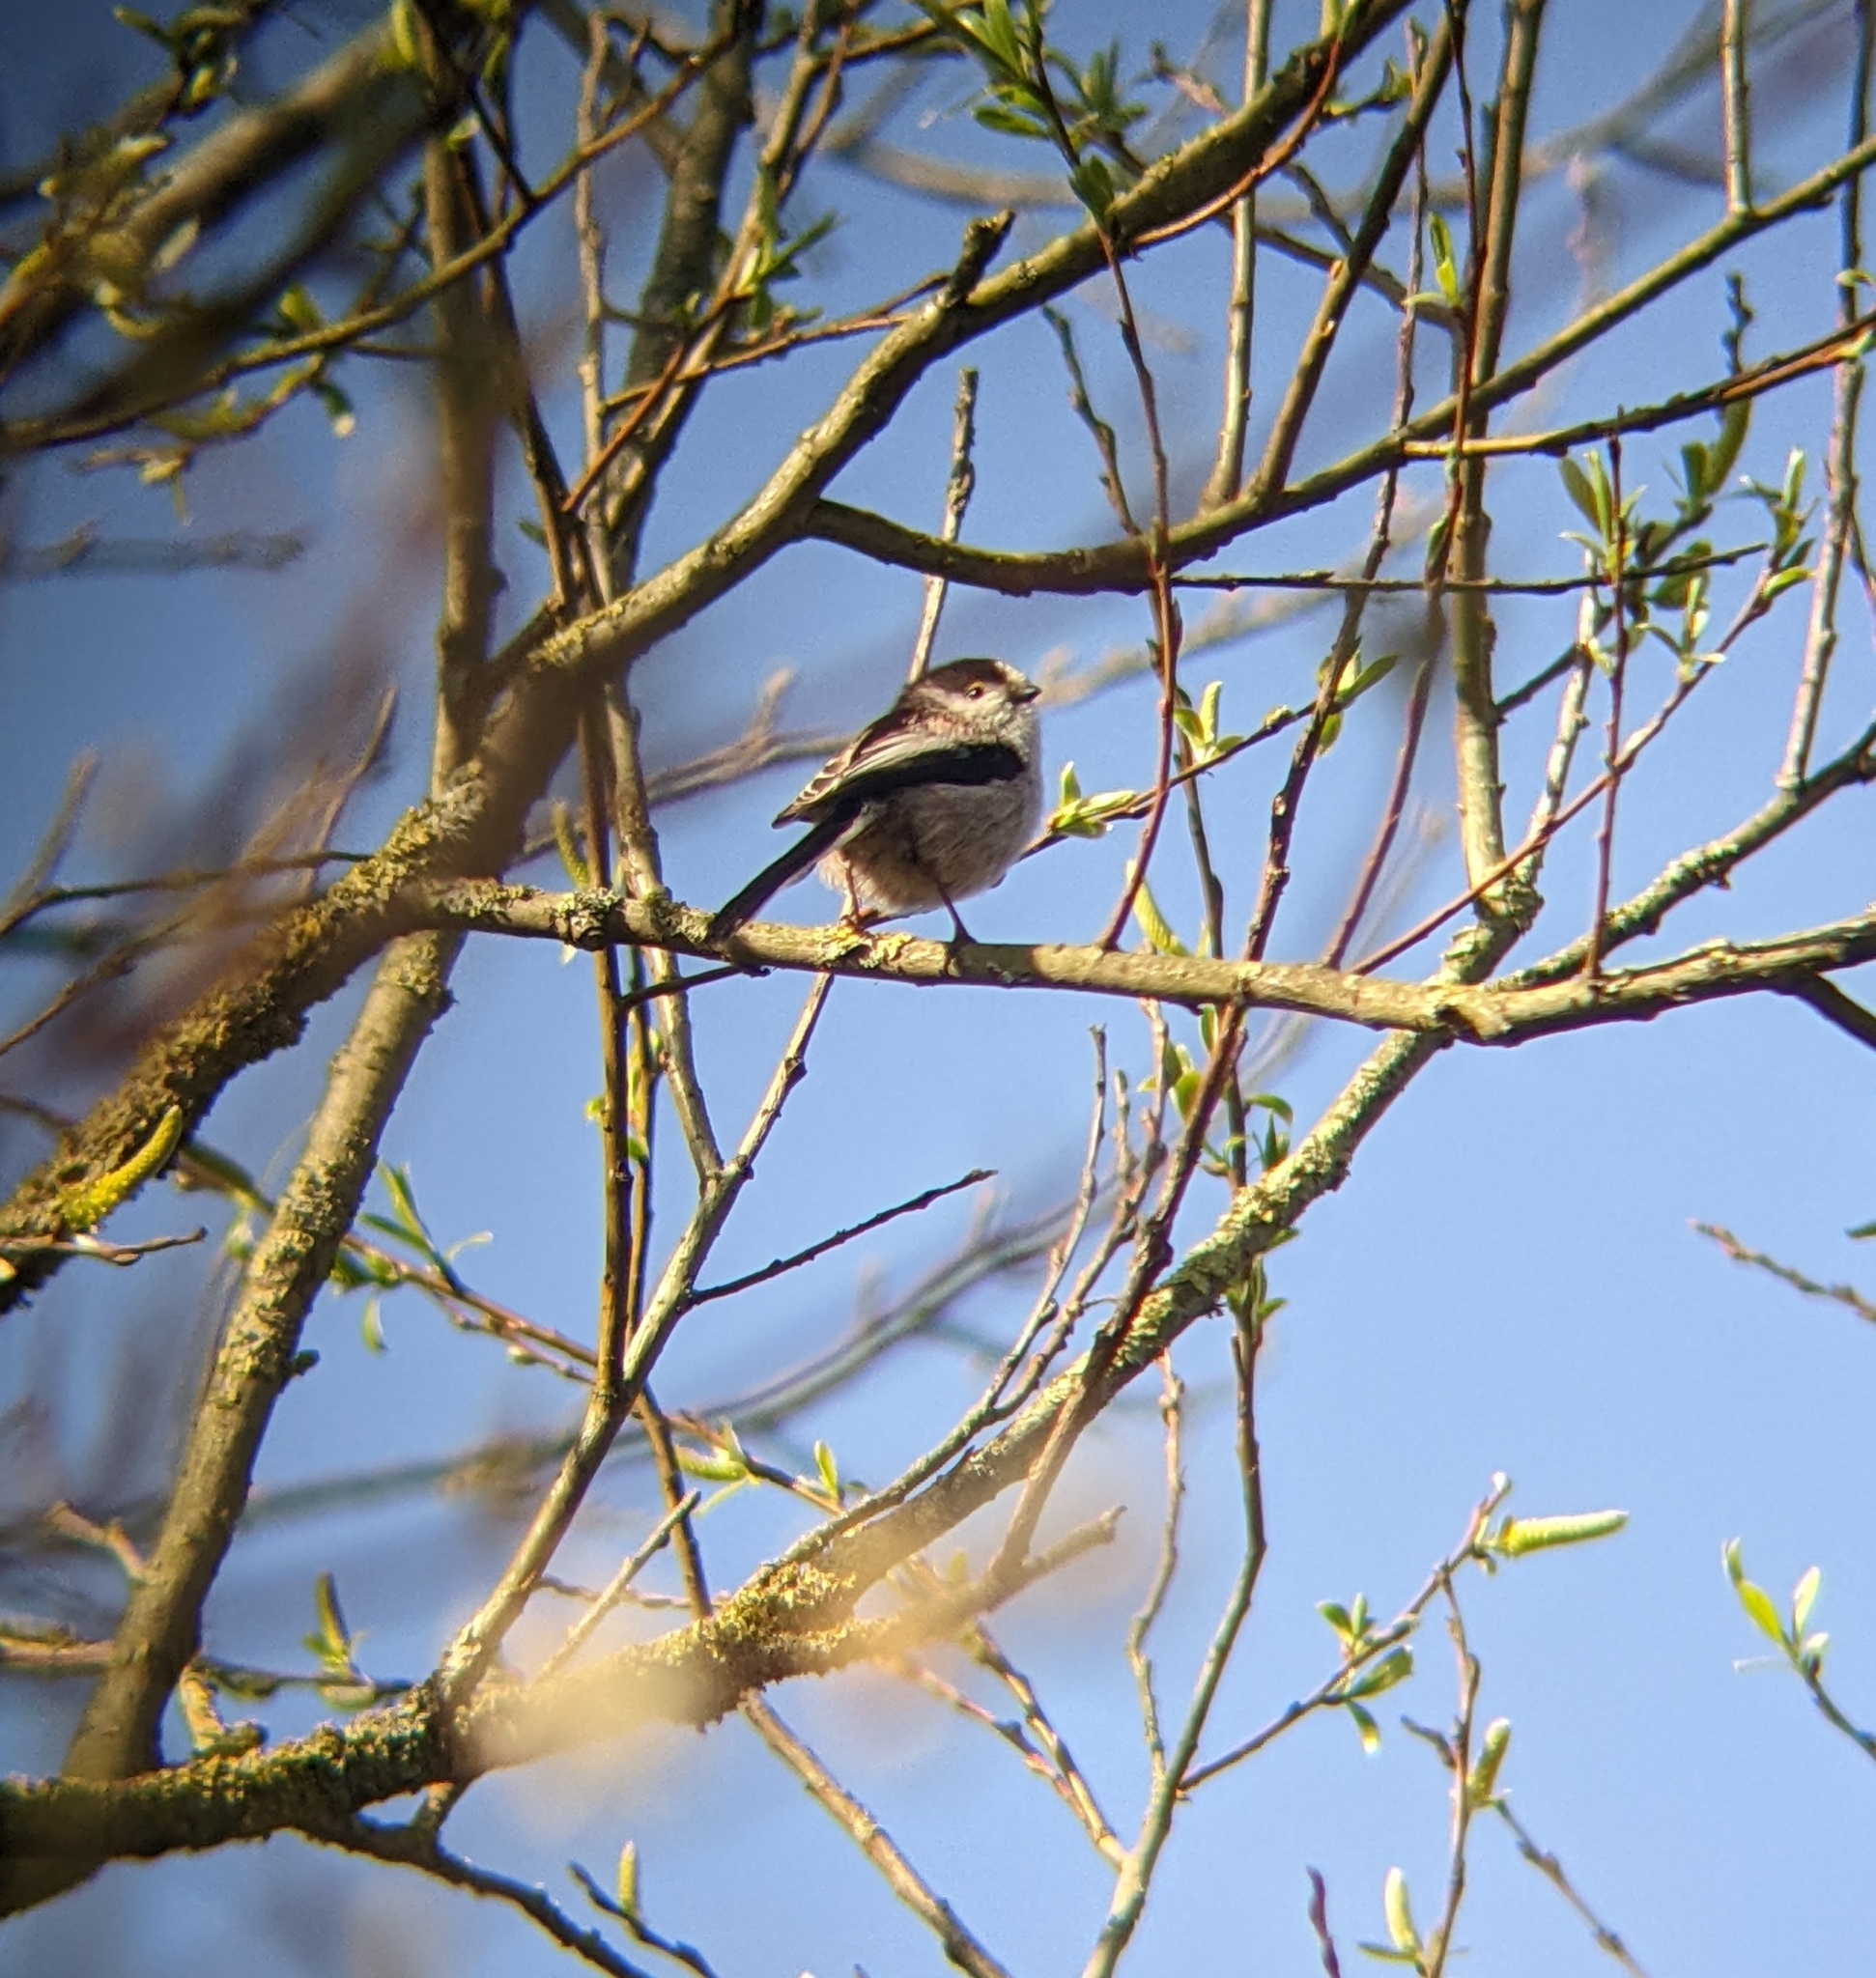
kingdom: Animalia
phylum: Chordata
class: Aves
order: Passeriformes
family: Aegithalidae
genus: Aegithalos
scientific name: Aegithalos caudatus
